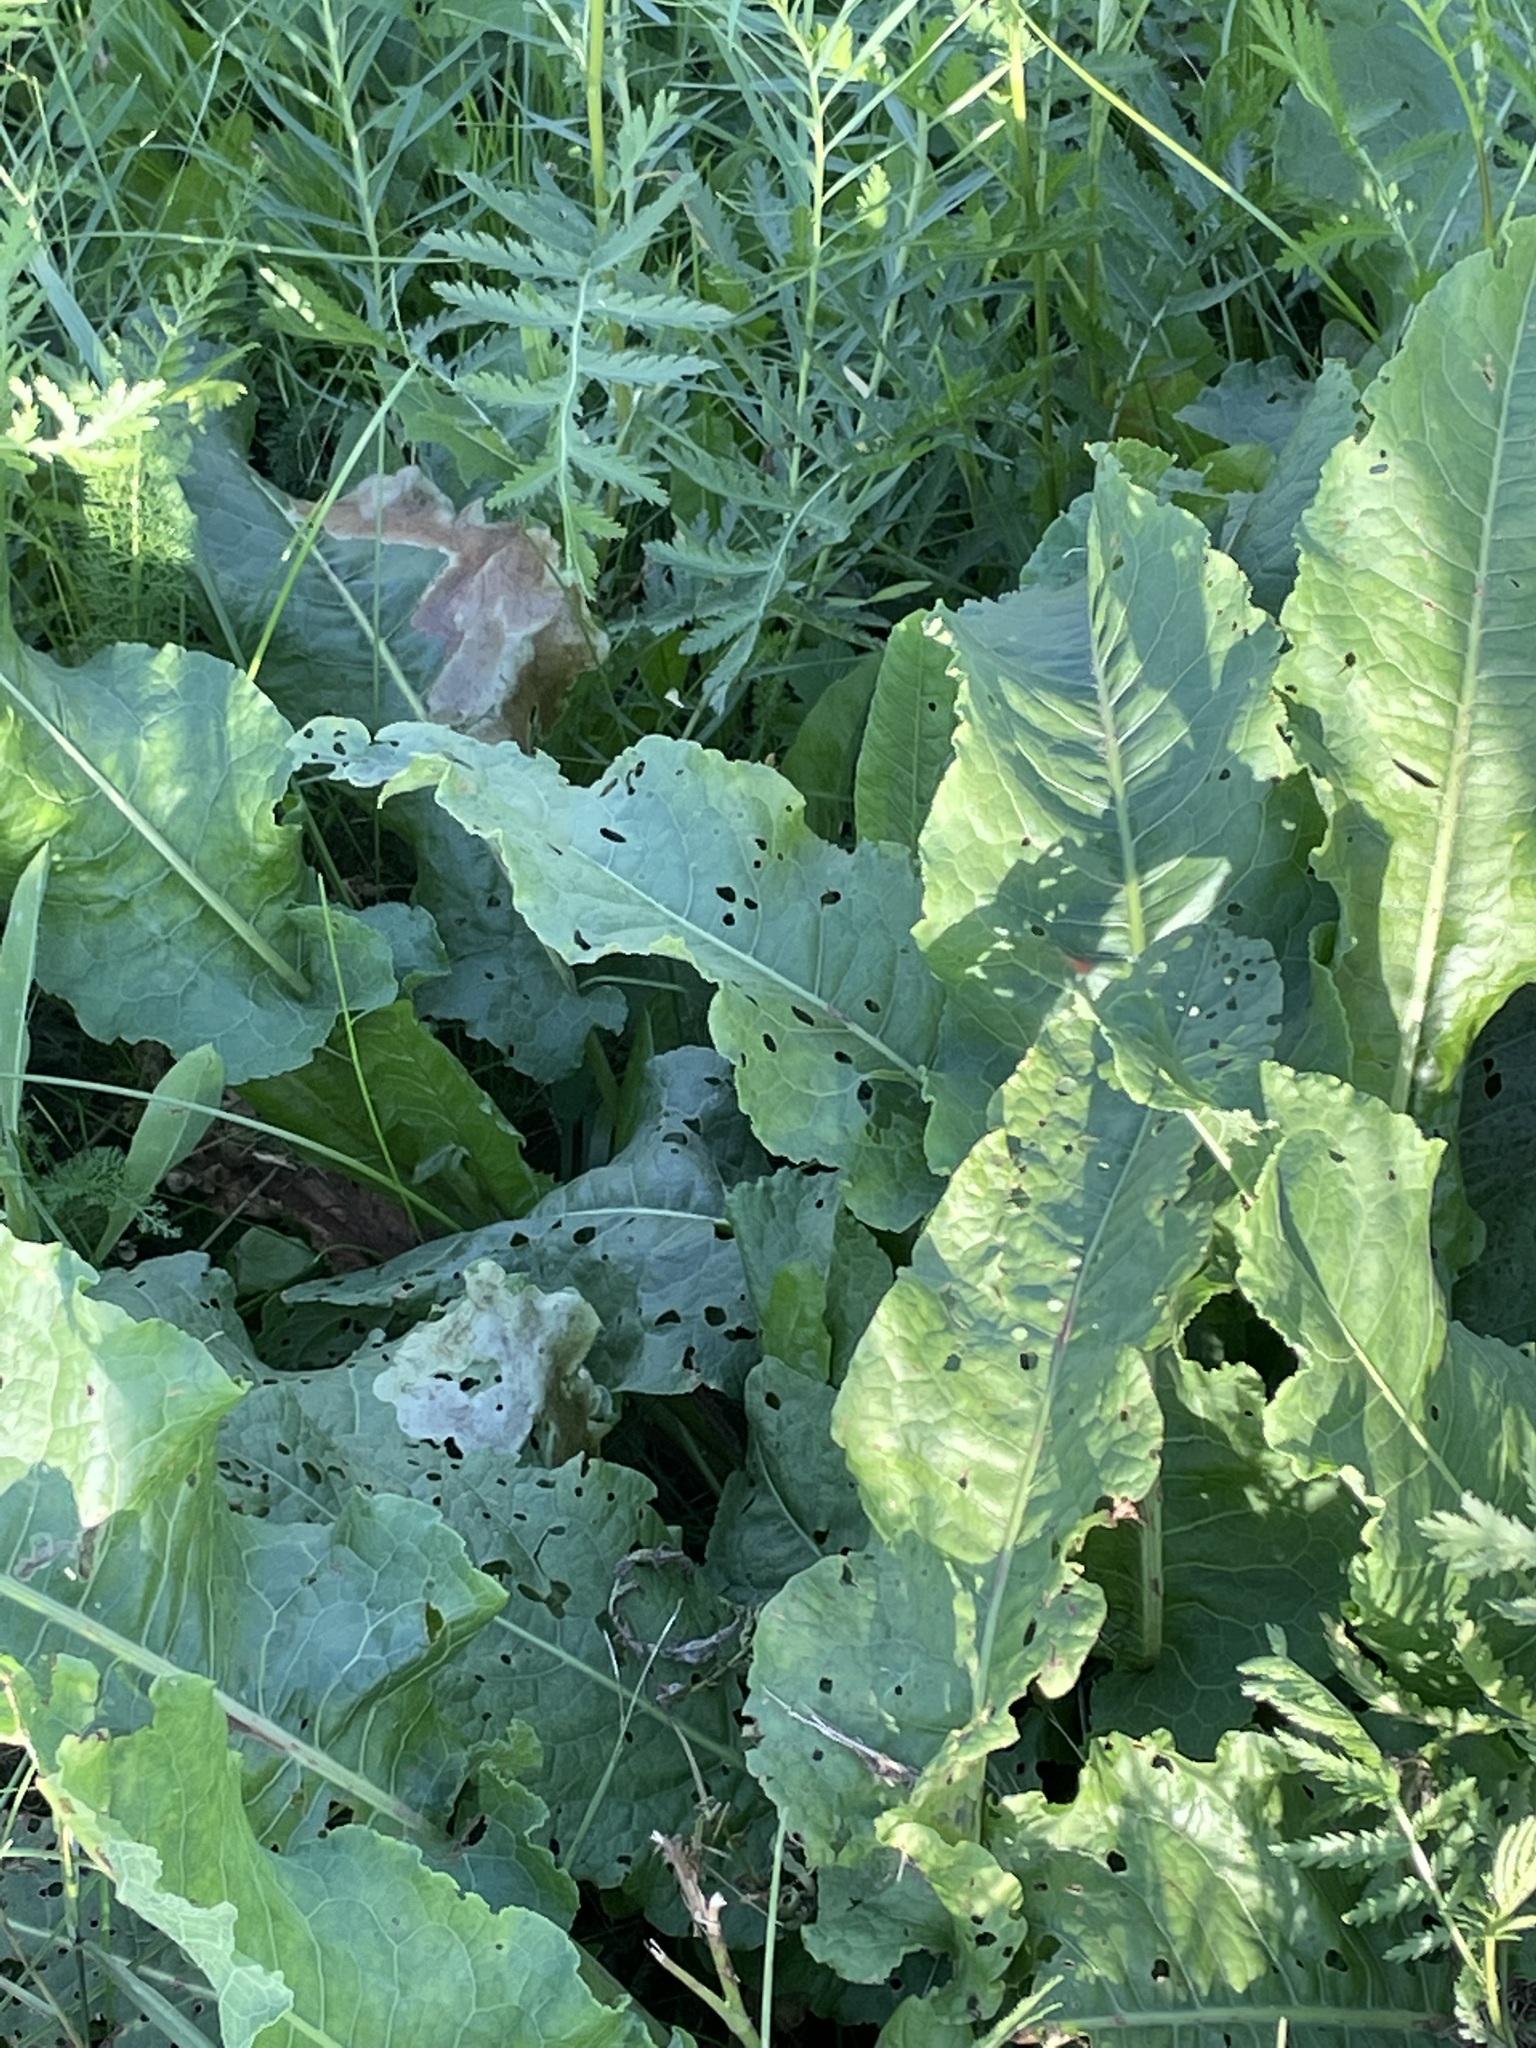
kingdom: Plantae
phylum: Tracheophyta
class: Magnoliopsida
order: Brassicales
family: Brassicaceae
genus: Armoracia
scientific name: Armoracia rusticana
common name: Horseradish
